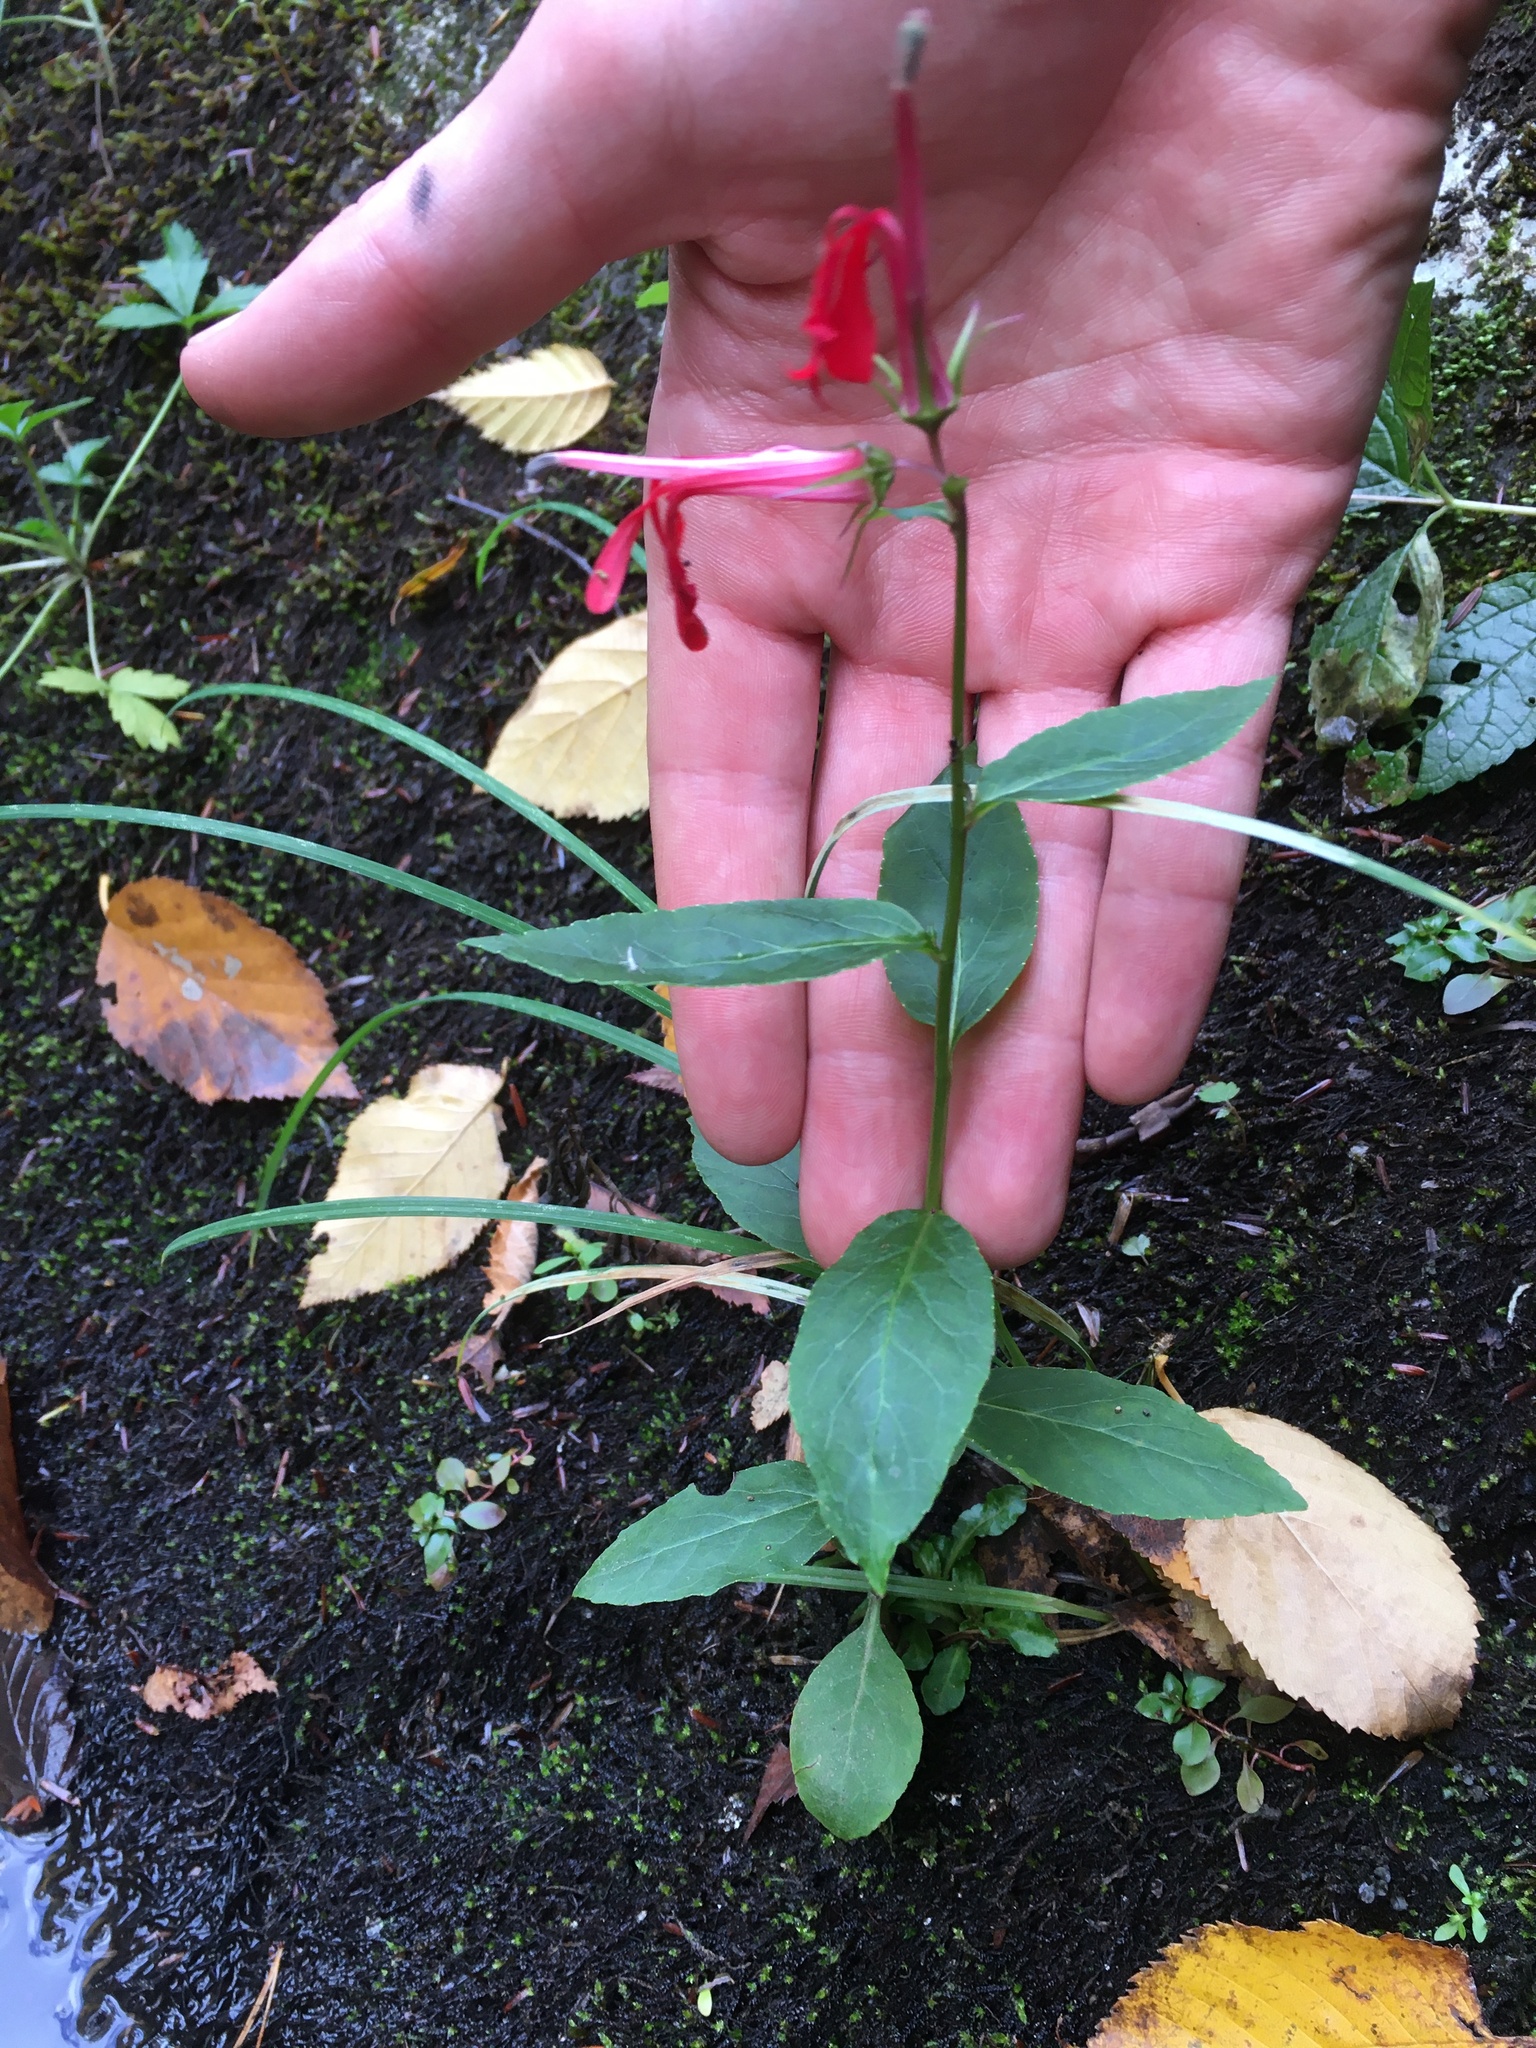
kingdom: Plantae
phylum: Tracheophyta
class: Magnoliopsida
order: Asterales
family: Campanulaceae
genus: Lobelia
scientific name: Lobelia cardinalis
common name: Cardinal flower
